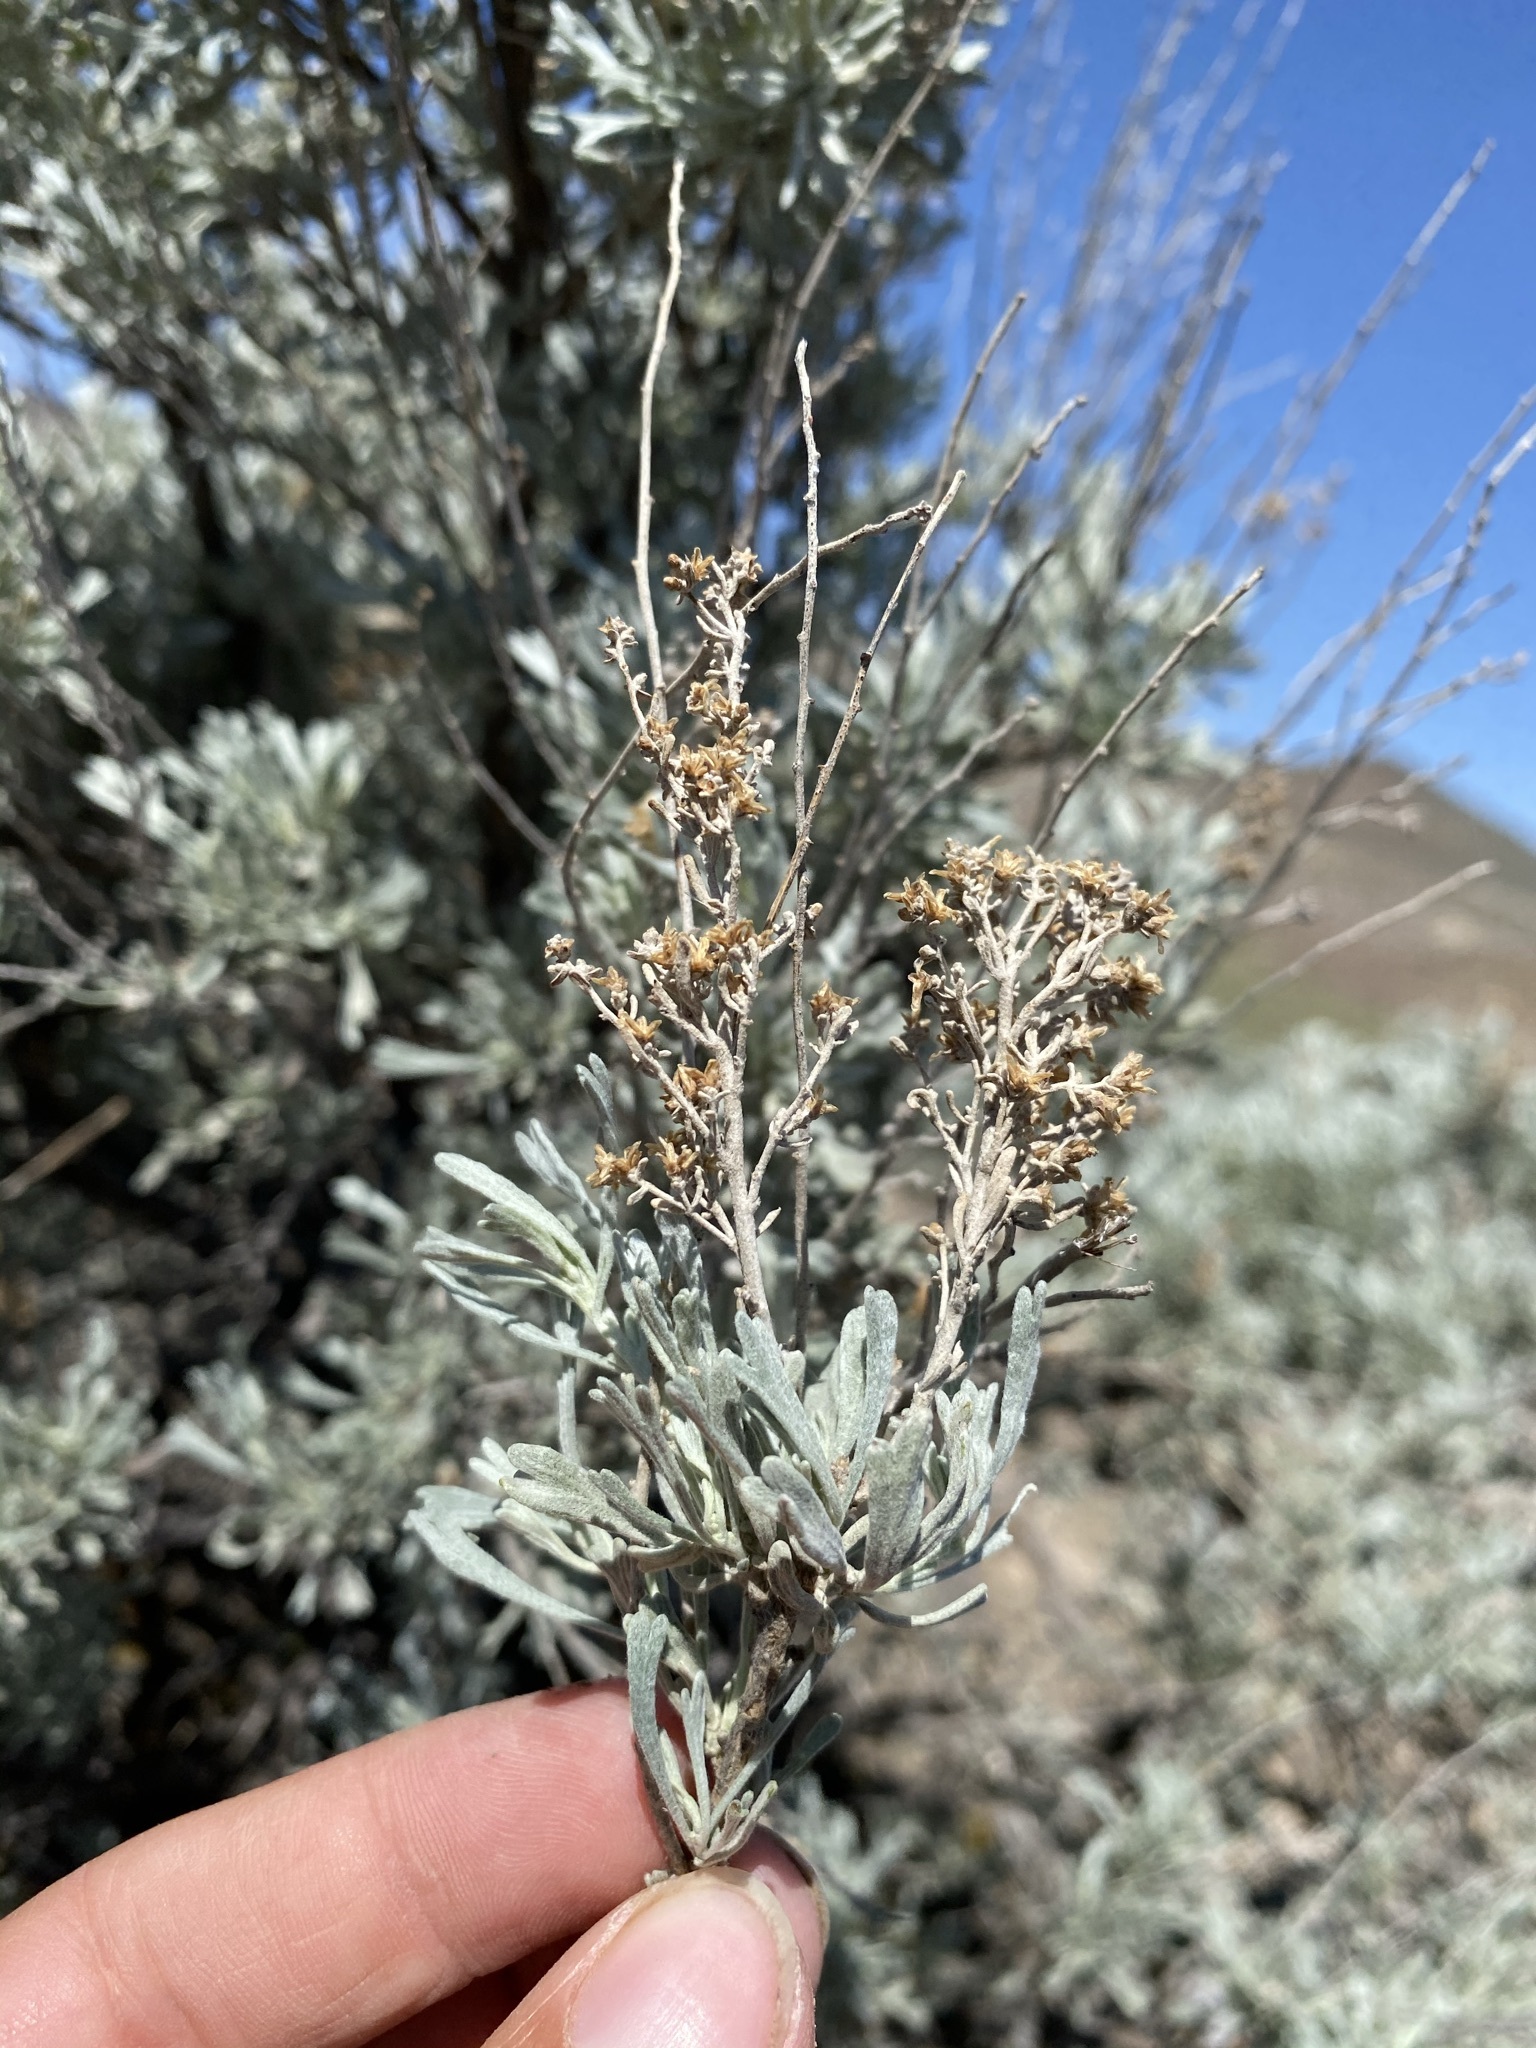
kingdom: Plantae
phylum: Tracheophyta
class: Magnoliopsida
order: Asterales
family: Asteraceae
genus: Artemisia
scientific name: Artemisia tridentata
